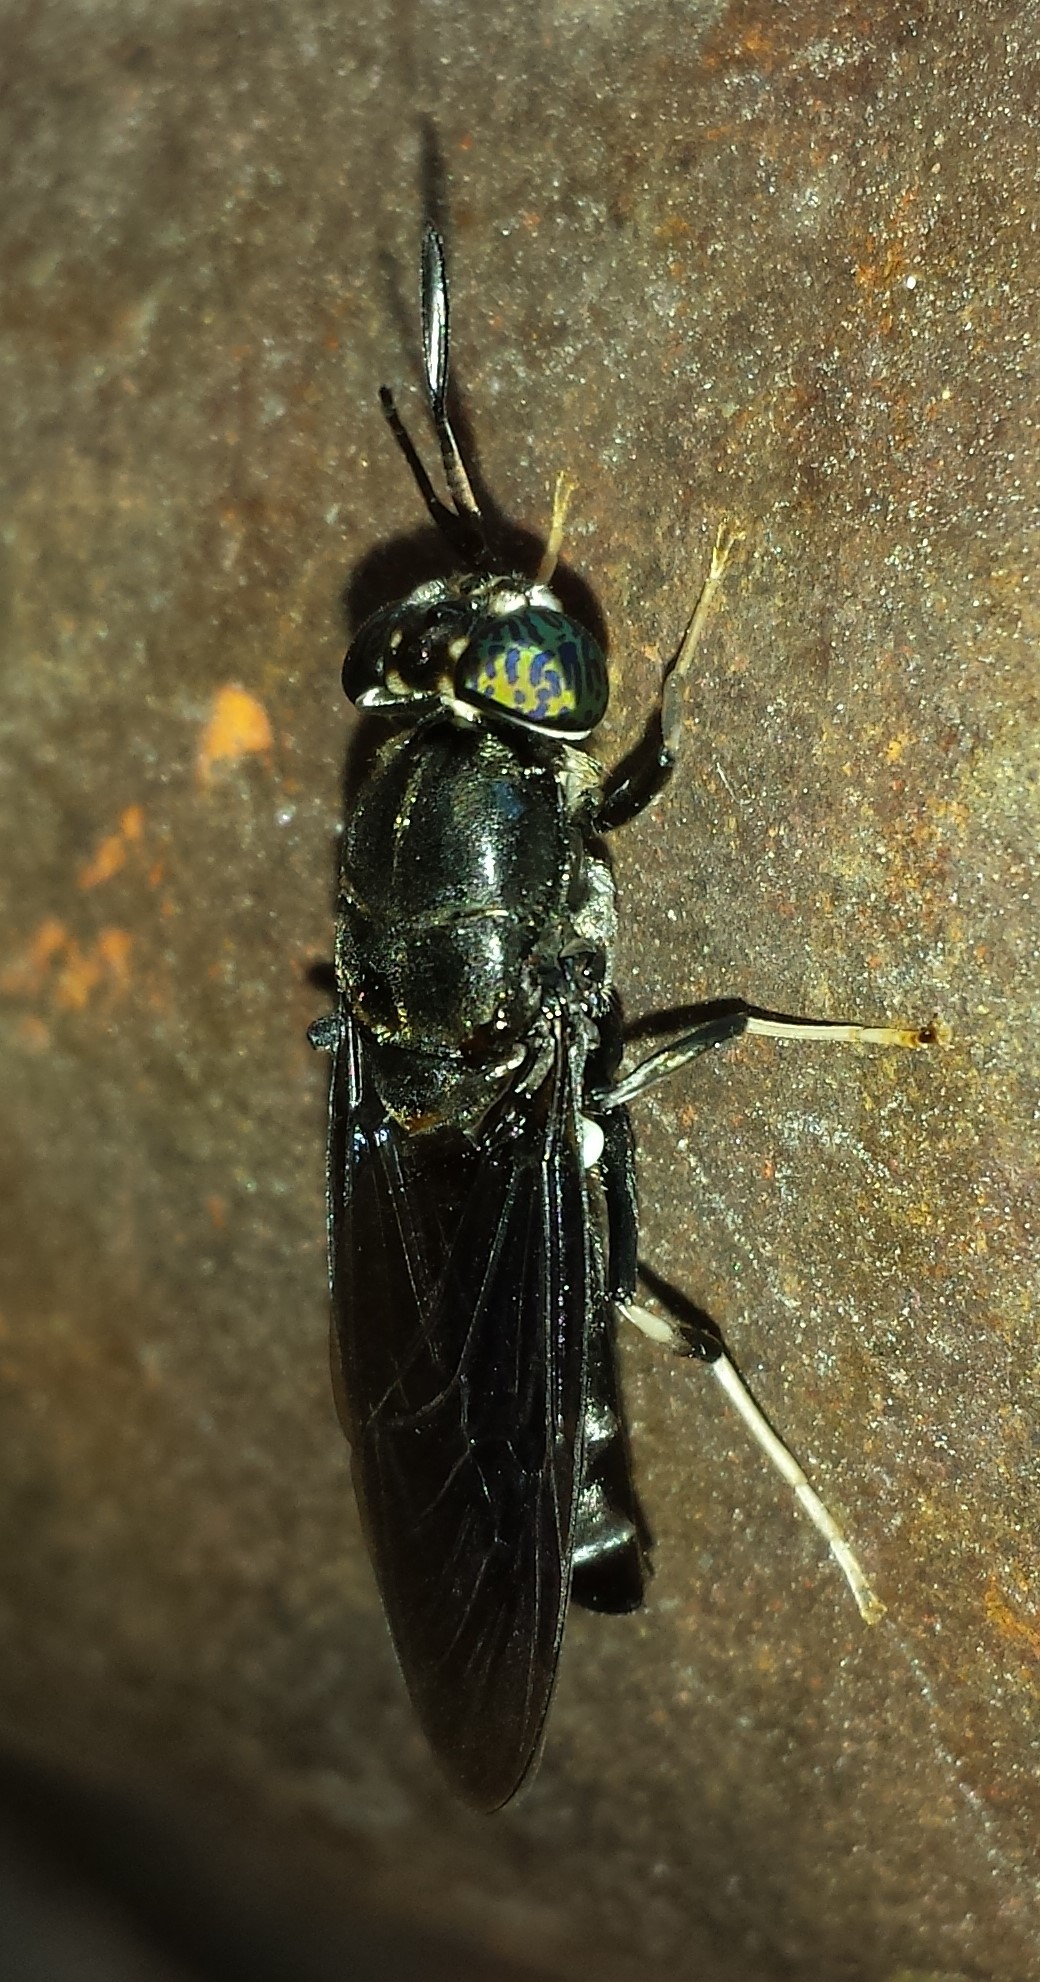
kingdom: Animalia
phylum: Arthropoda
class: Insecta
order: Diptera
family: Stratiomyidae
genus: Hermetia
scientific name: Hermetia illucens
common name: Black soldier fly
